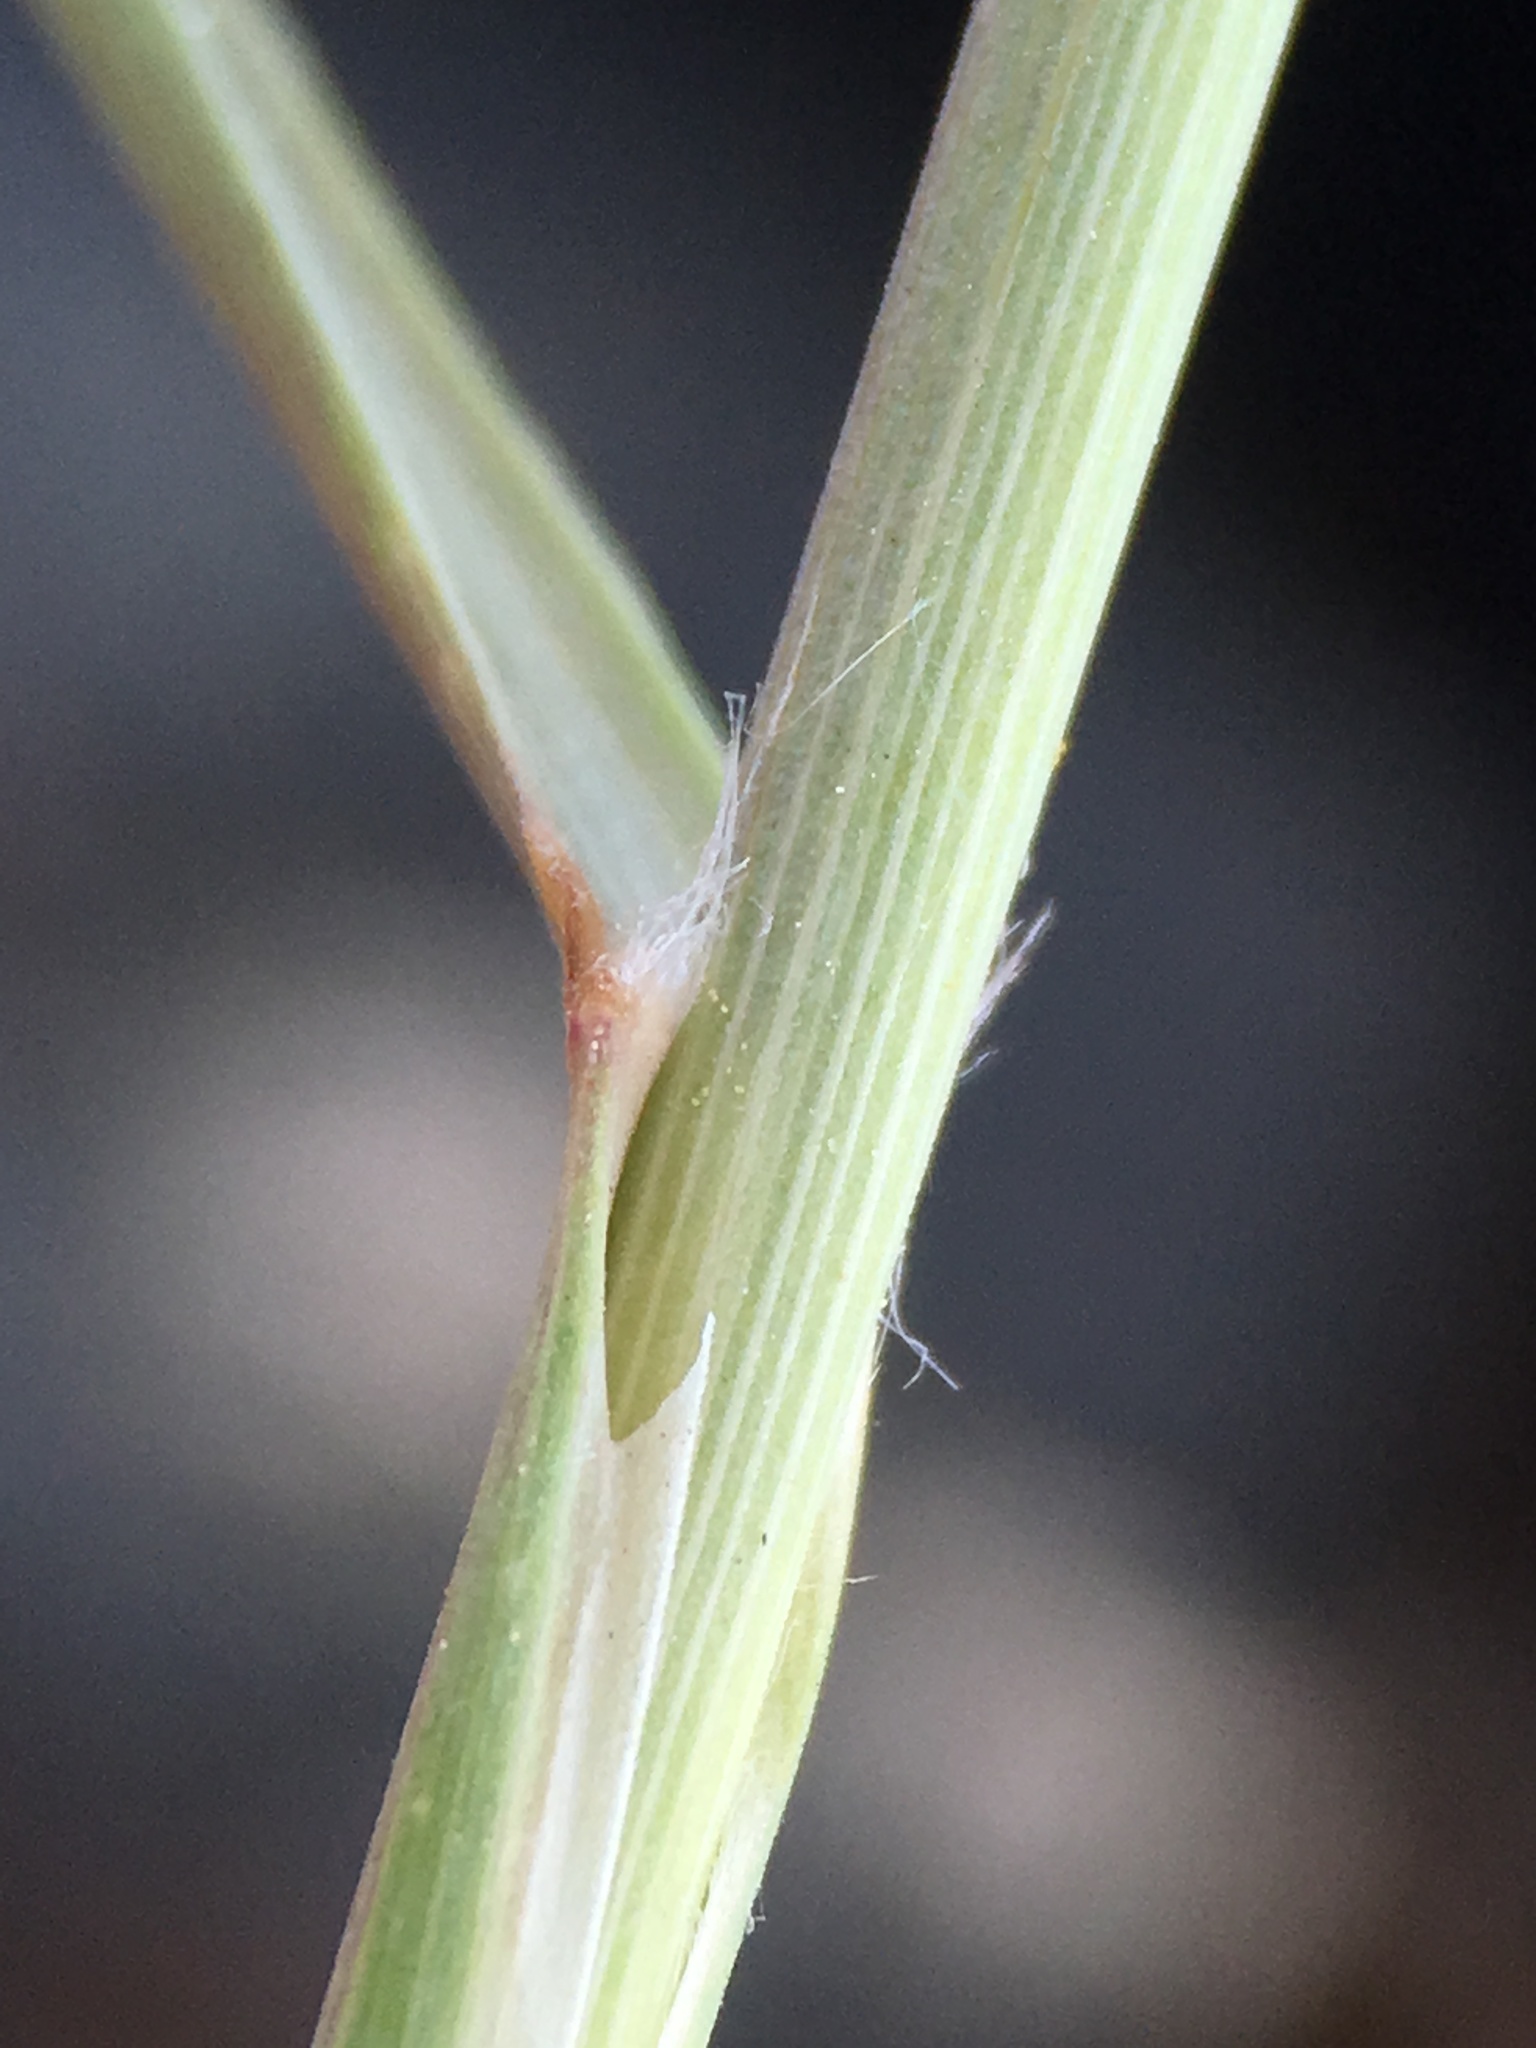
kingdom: Plantae
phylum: Tracheophyta
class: Liliopsida
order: Poales
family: Poaceae
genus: Eriocoma
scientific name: Eriocoma parishii
